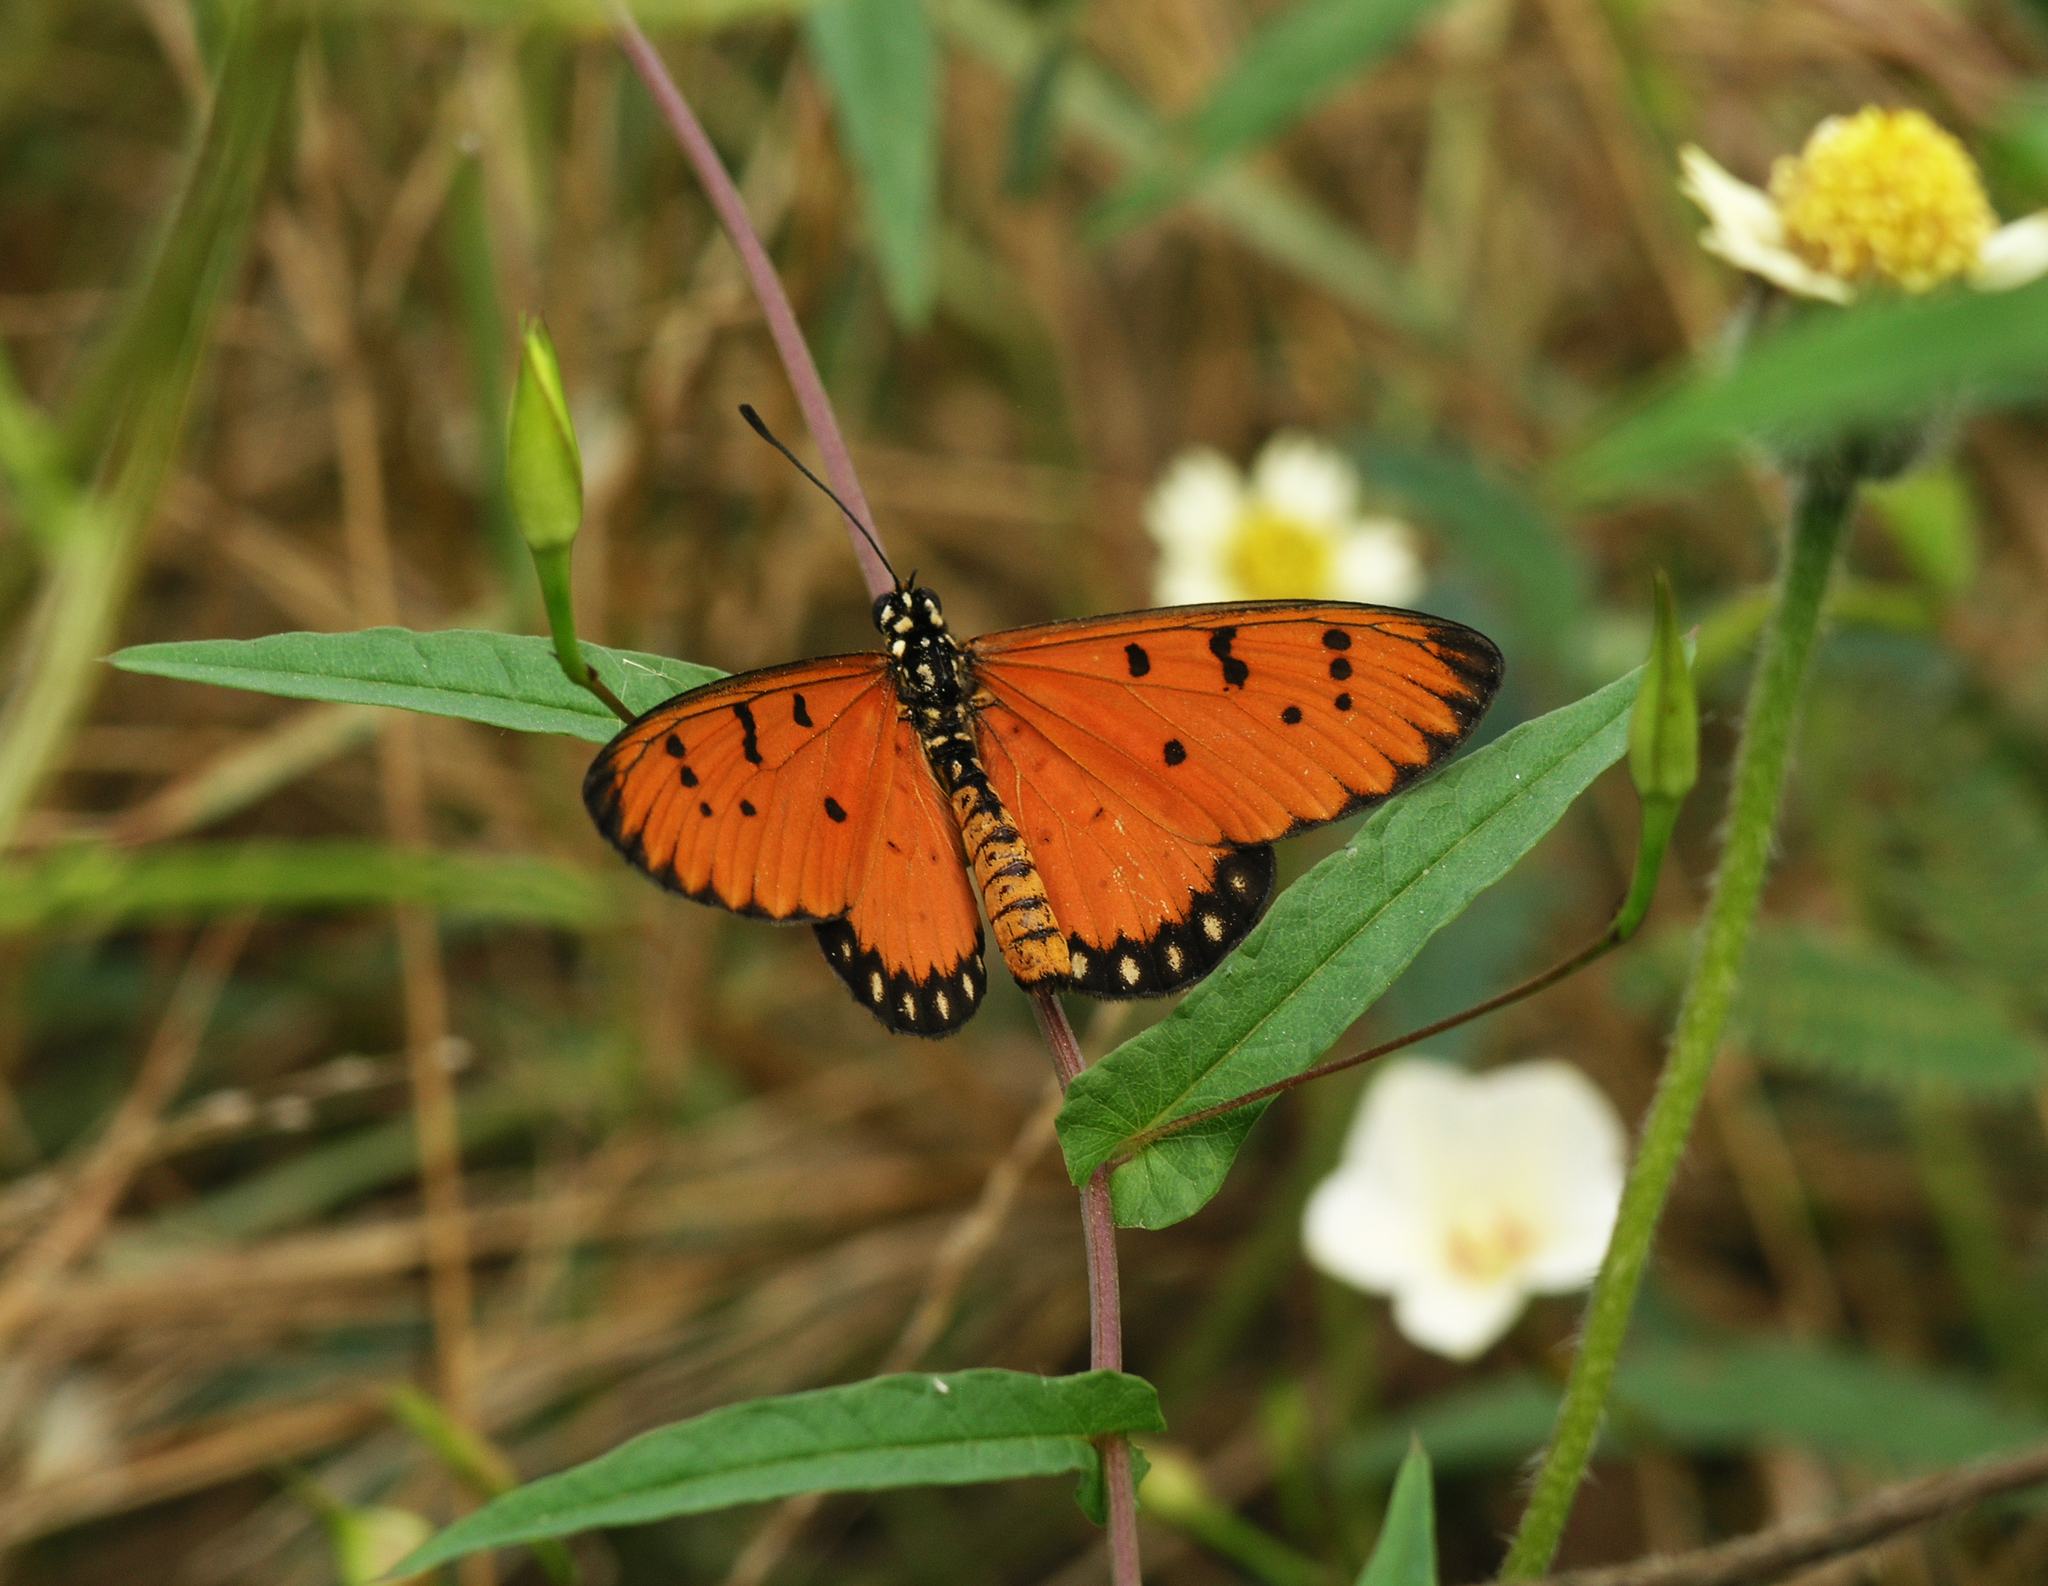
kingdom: Animalia
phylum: Arthropoda
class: Insecta
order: Lepidoptera
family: Nymphalidae
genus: Acraea
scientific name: Acraea terpsicore
